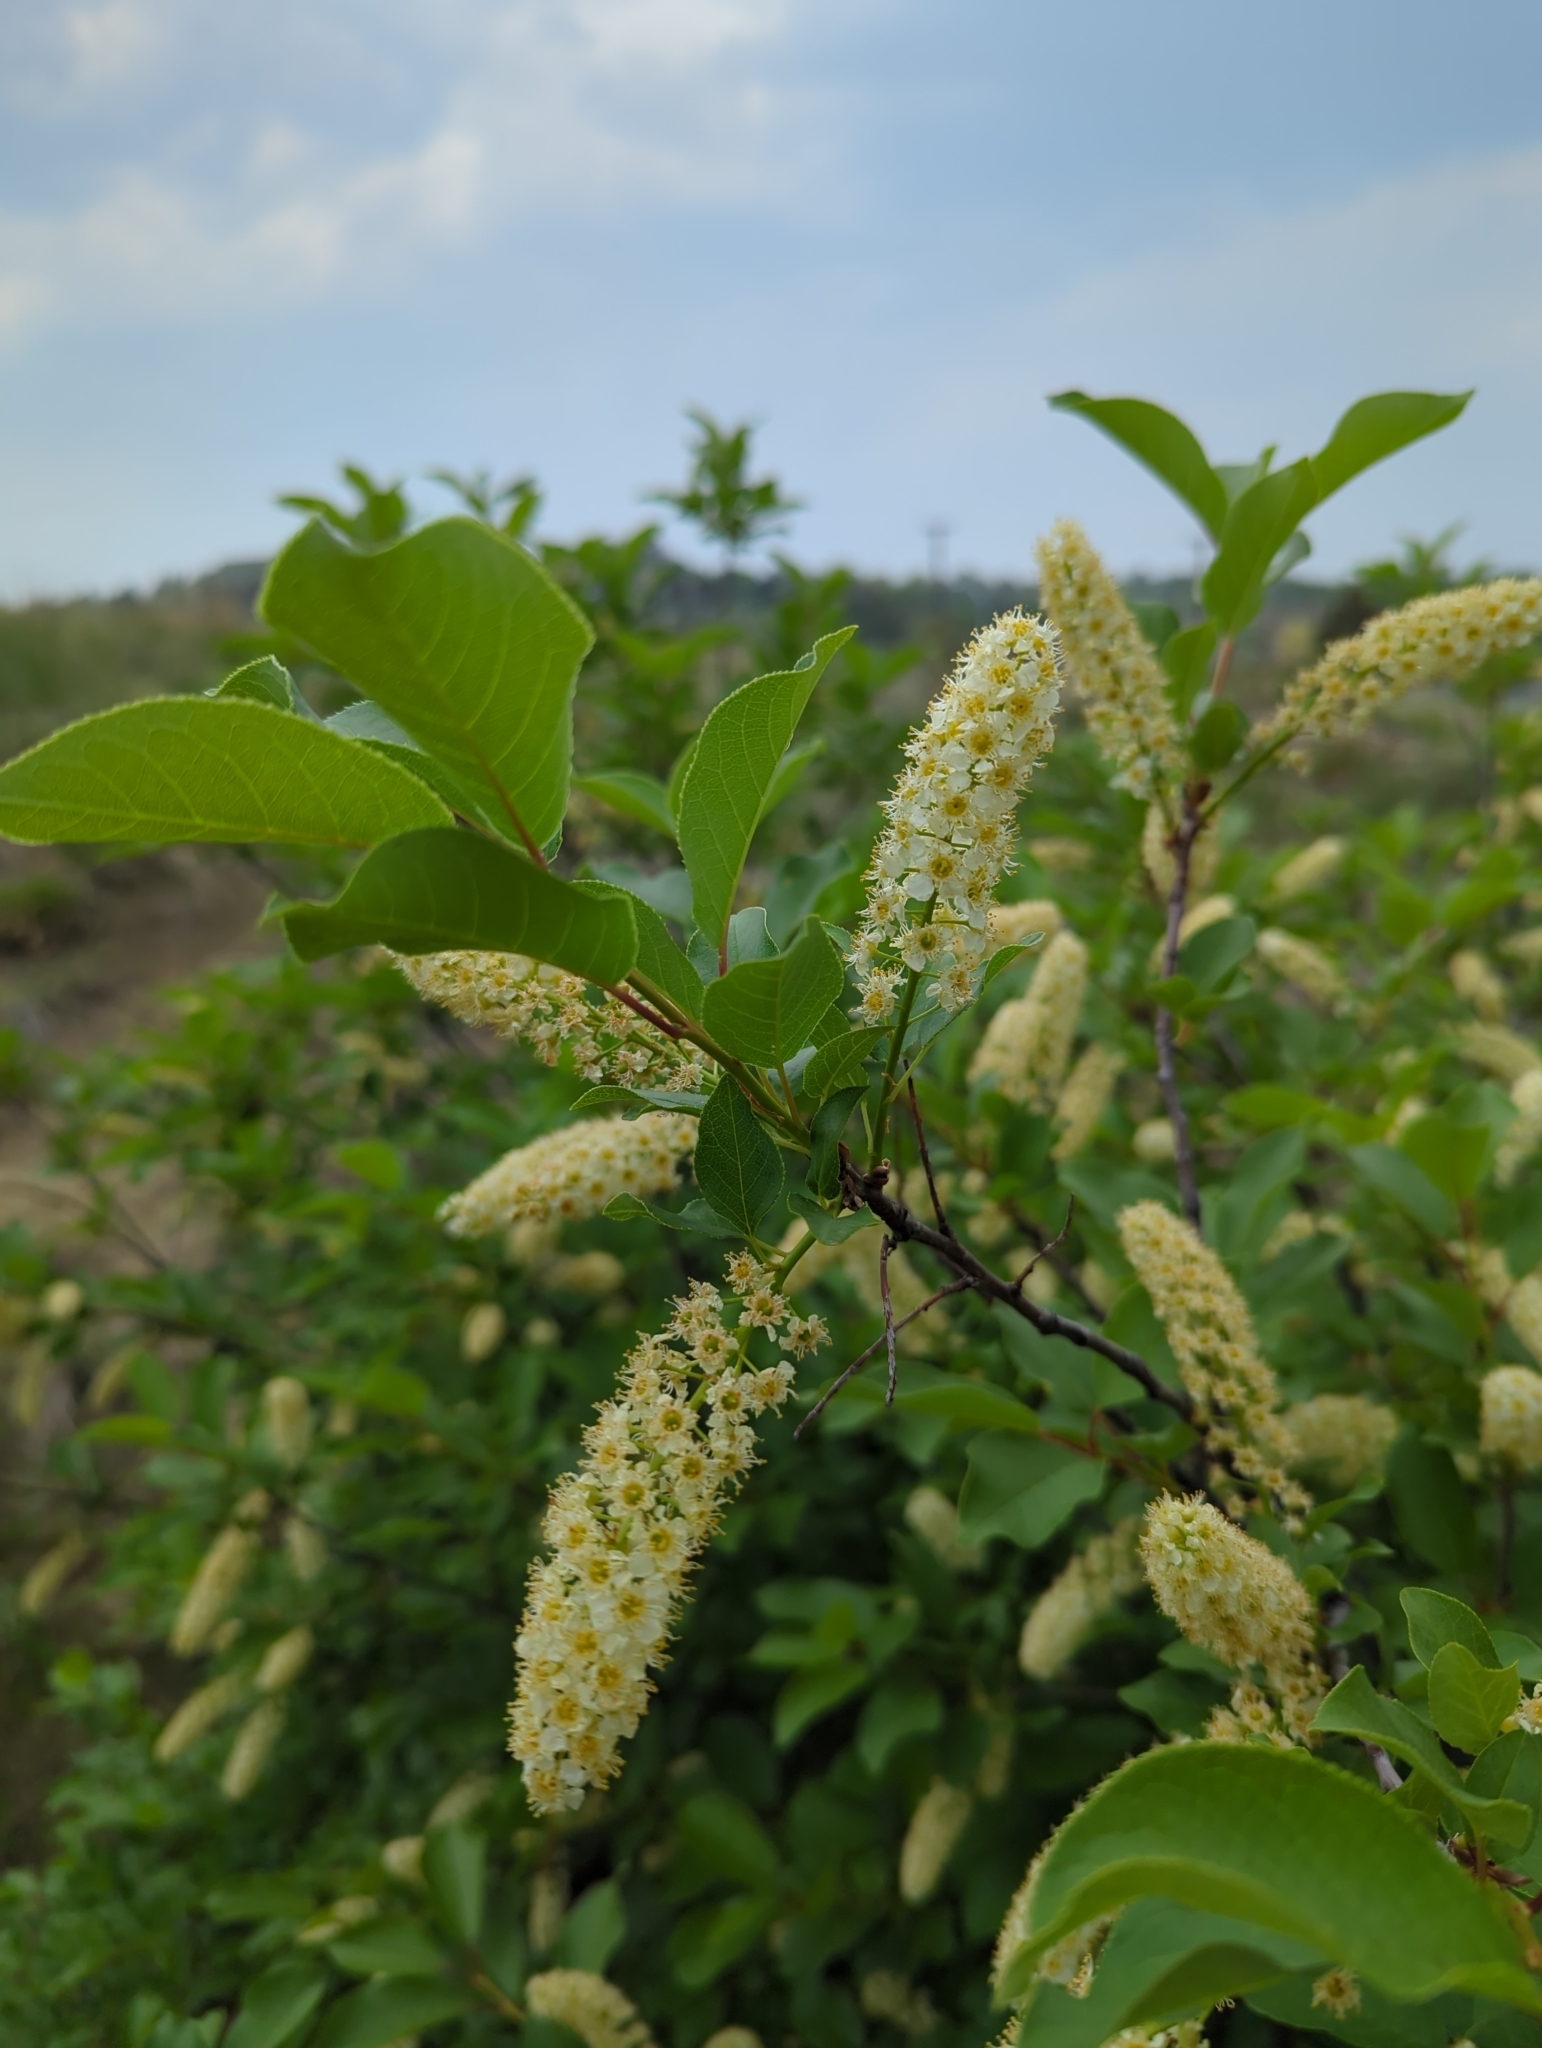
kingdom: Plantae
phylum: Tracheophyta
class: Magnoliopsida
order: Rosales
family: Rosaceae
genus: Prunus
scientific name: Prunus virginiana
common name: Chokecherry
